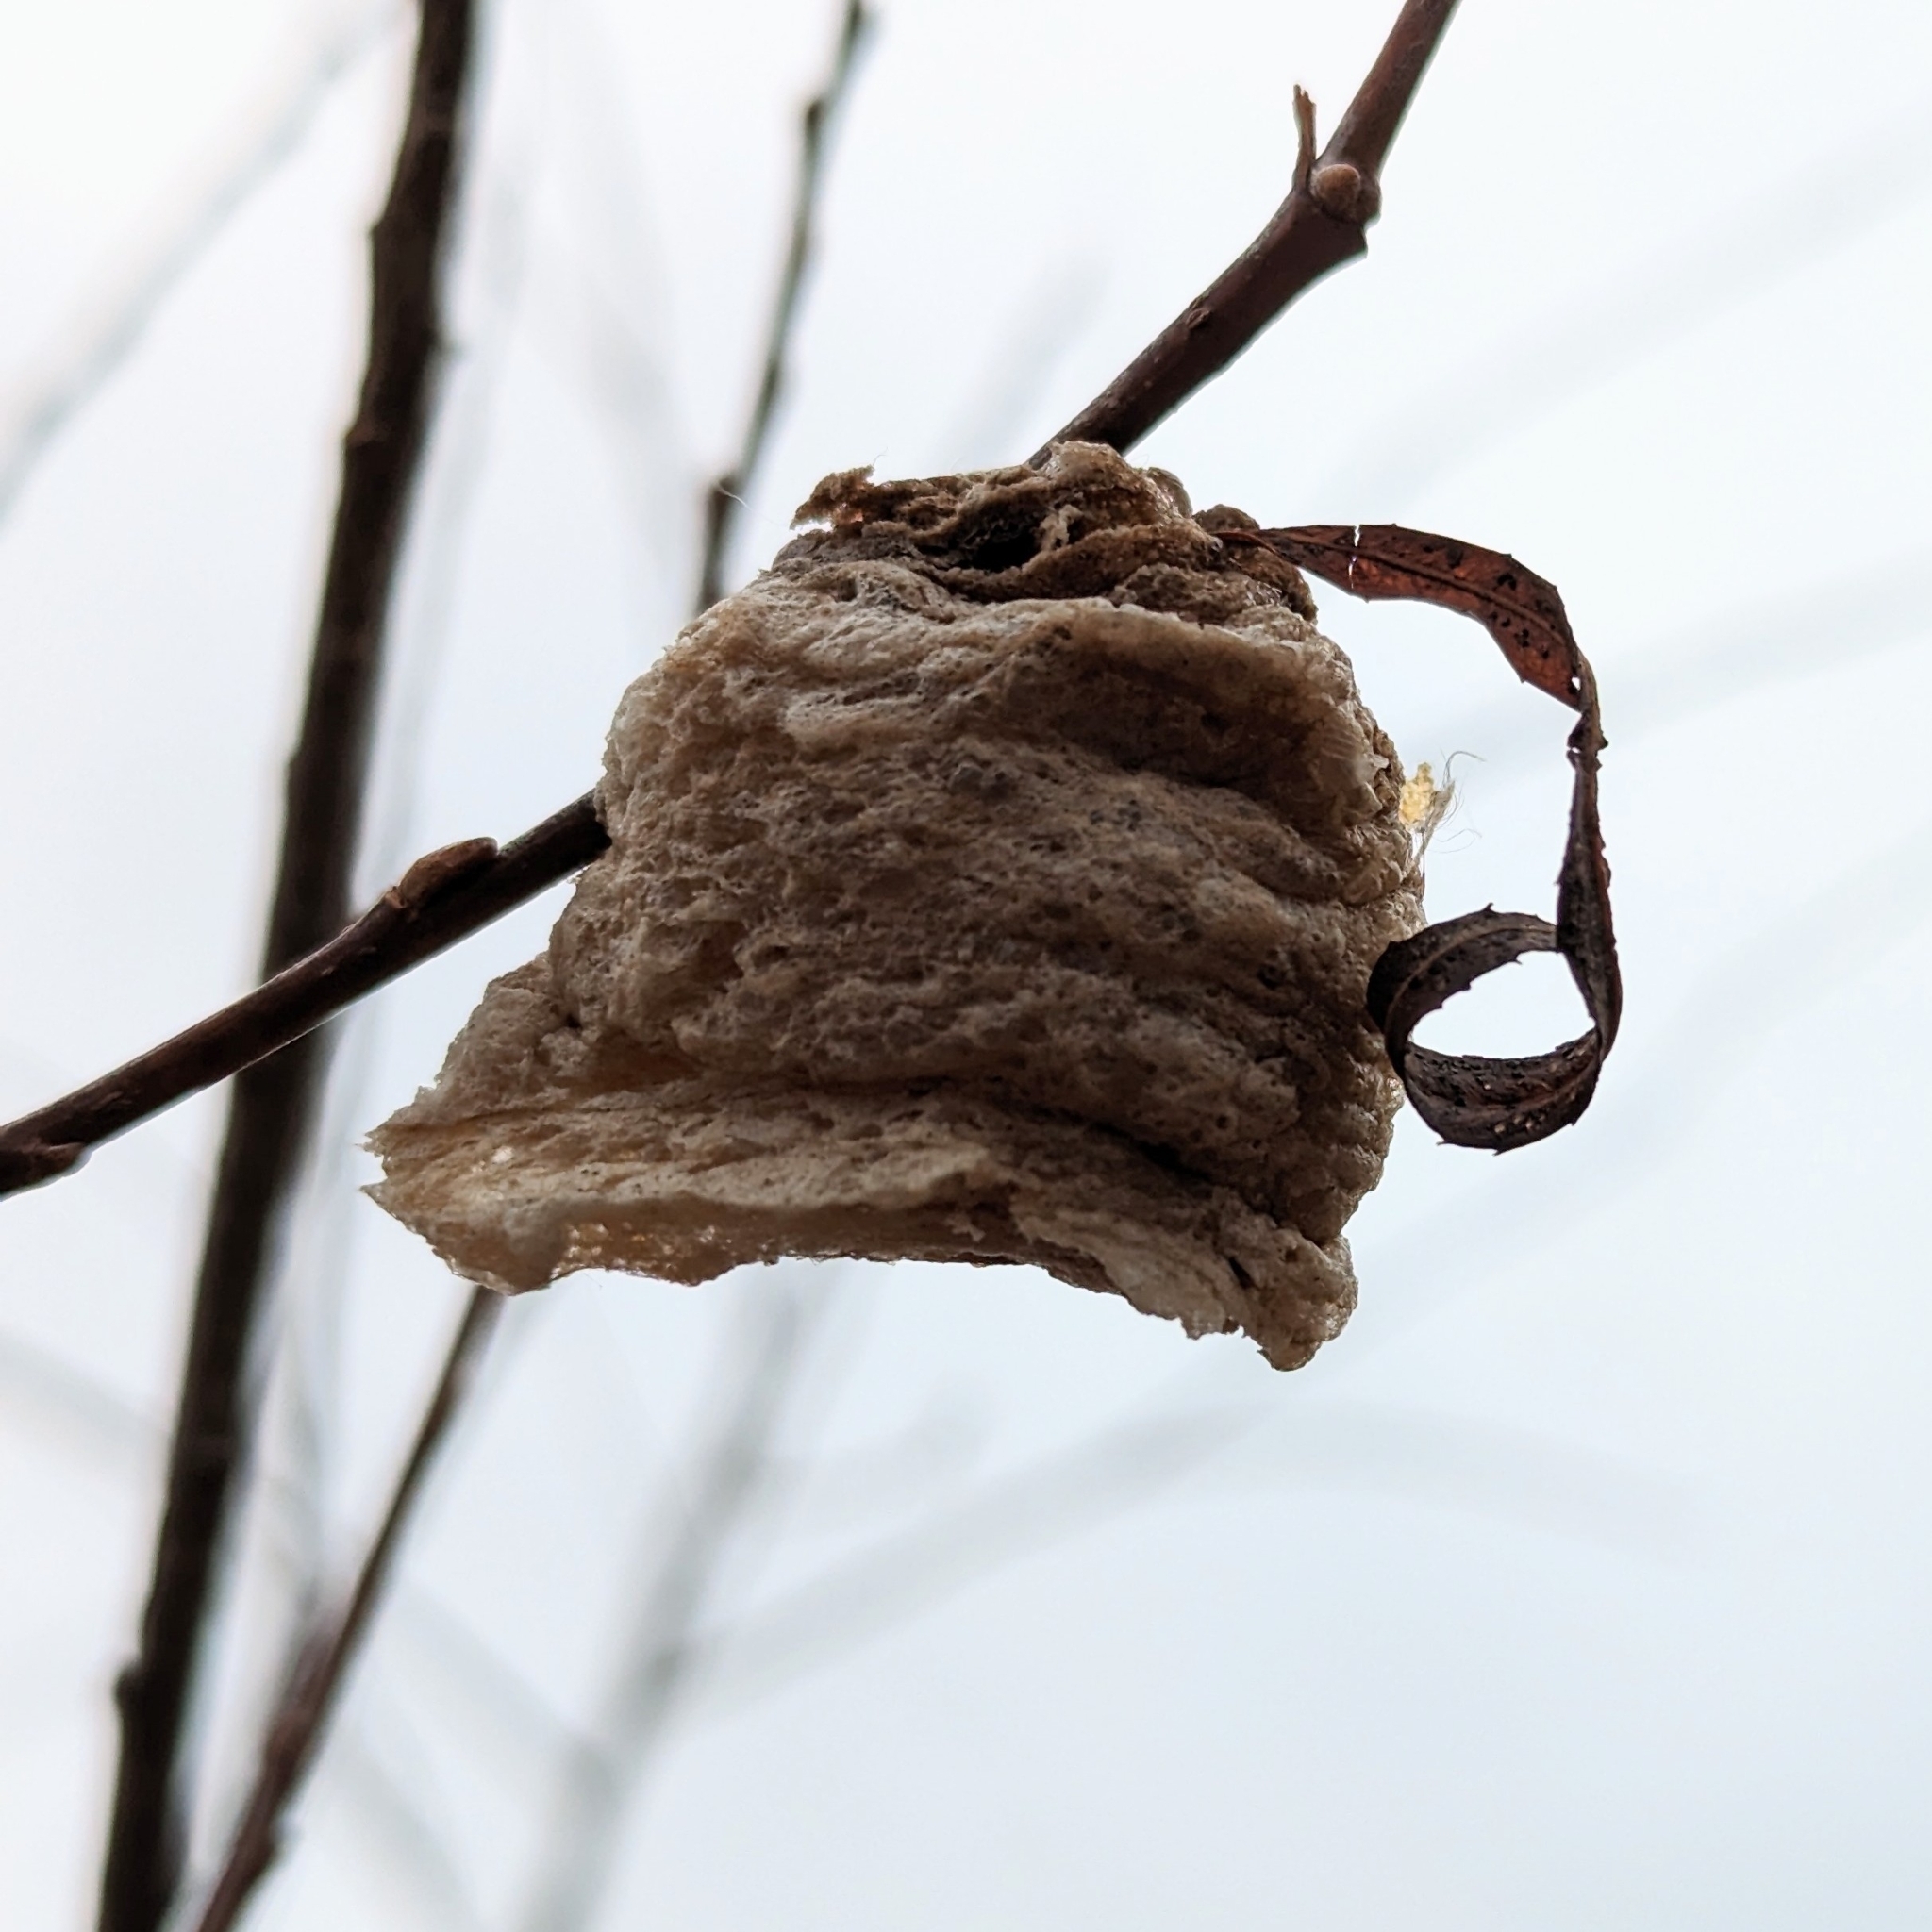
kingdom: Animalia
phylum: Arthropoda
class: Insecta
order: Mantodea
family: Mantidae
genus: Tenodera
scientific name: Tenodera sinensis
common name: Chinese mantis
